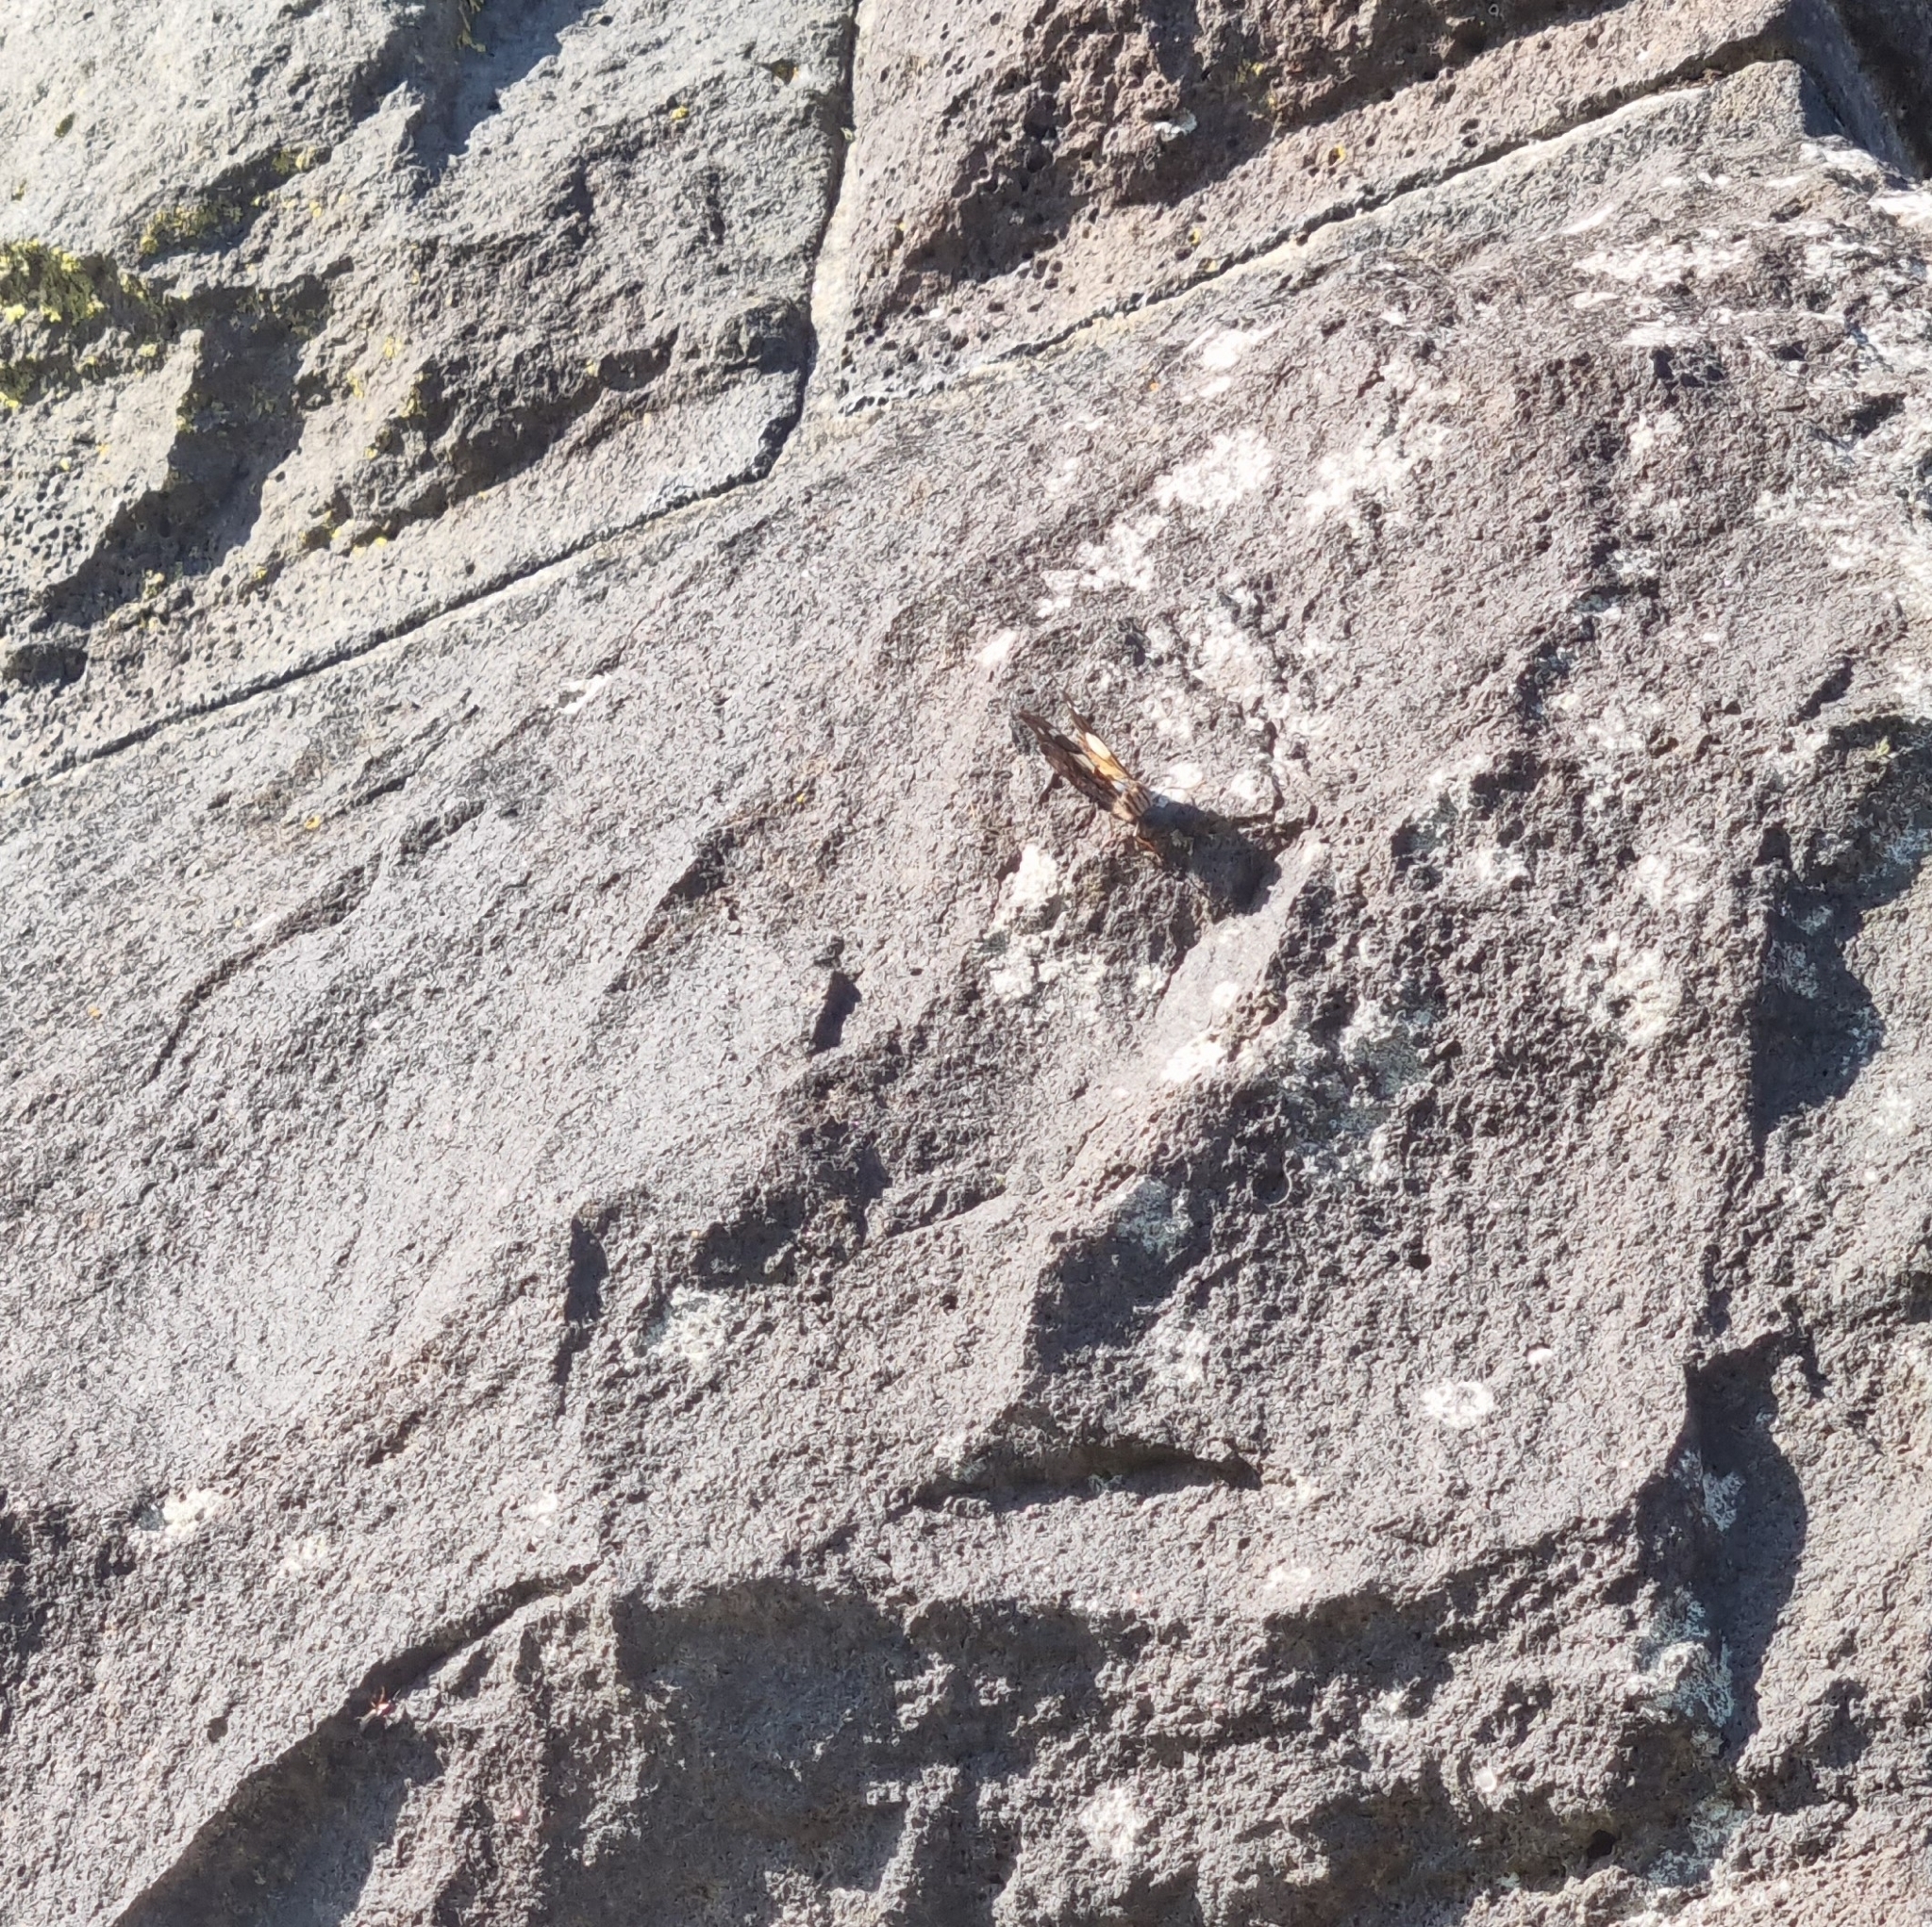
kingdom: Animalia
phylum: Arthropoda
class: Insecta
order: Lepidoptera
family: Nymphalidae
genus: Vanessa
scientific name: Vanessa itea
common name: Yellow admiral
